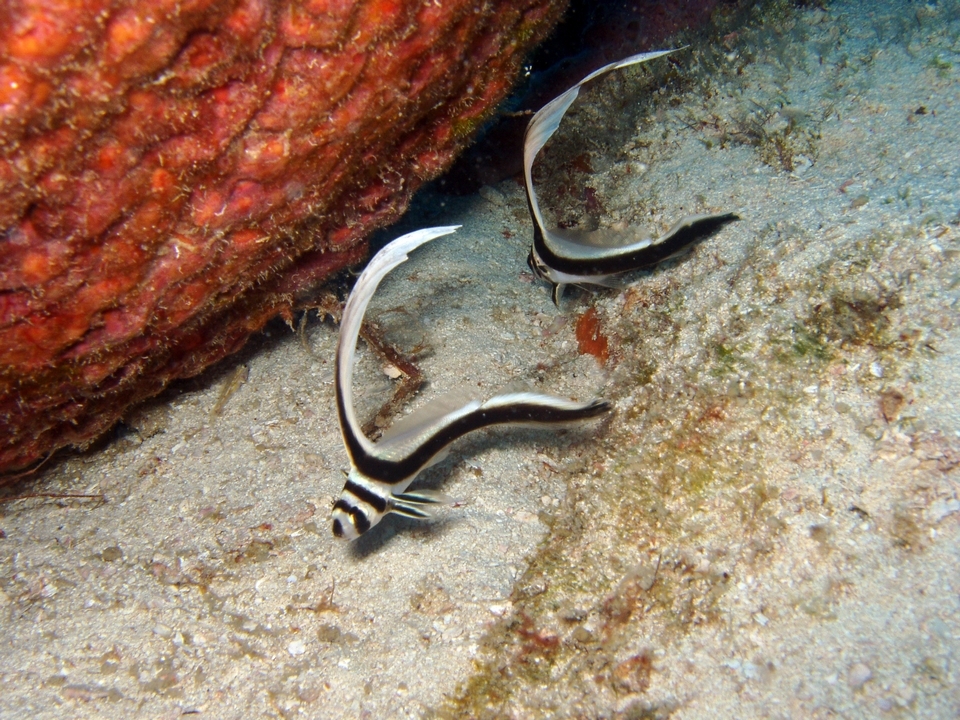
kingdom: Animalia
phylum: Chordata
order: Perciformes
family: Sciaenidae
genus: Equetus
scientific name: Equetus punctatus
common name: Spotted drum
